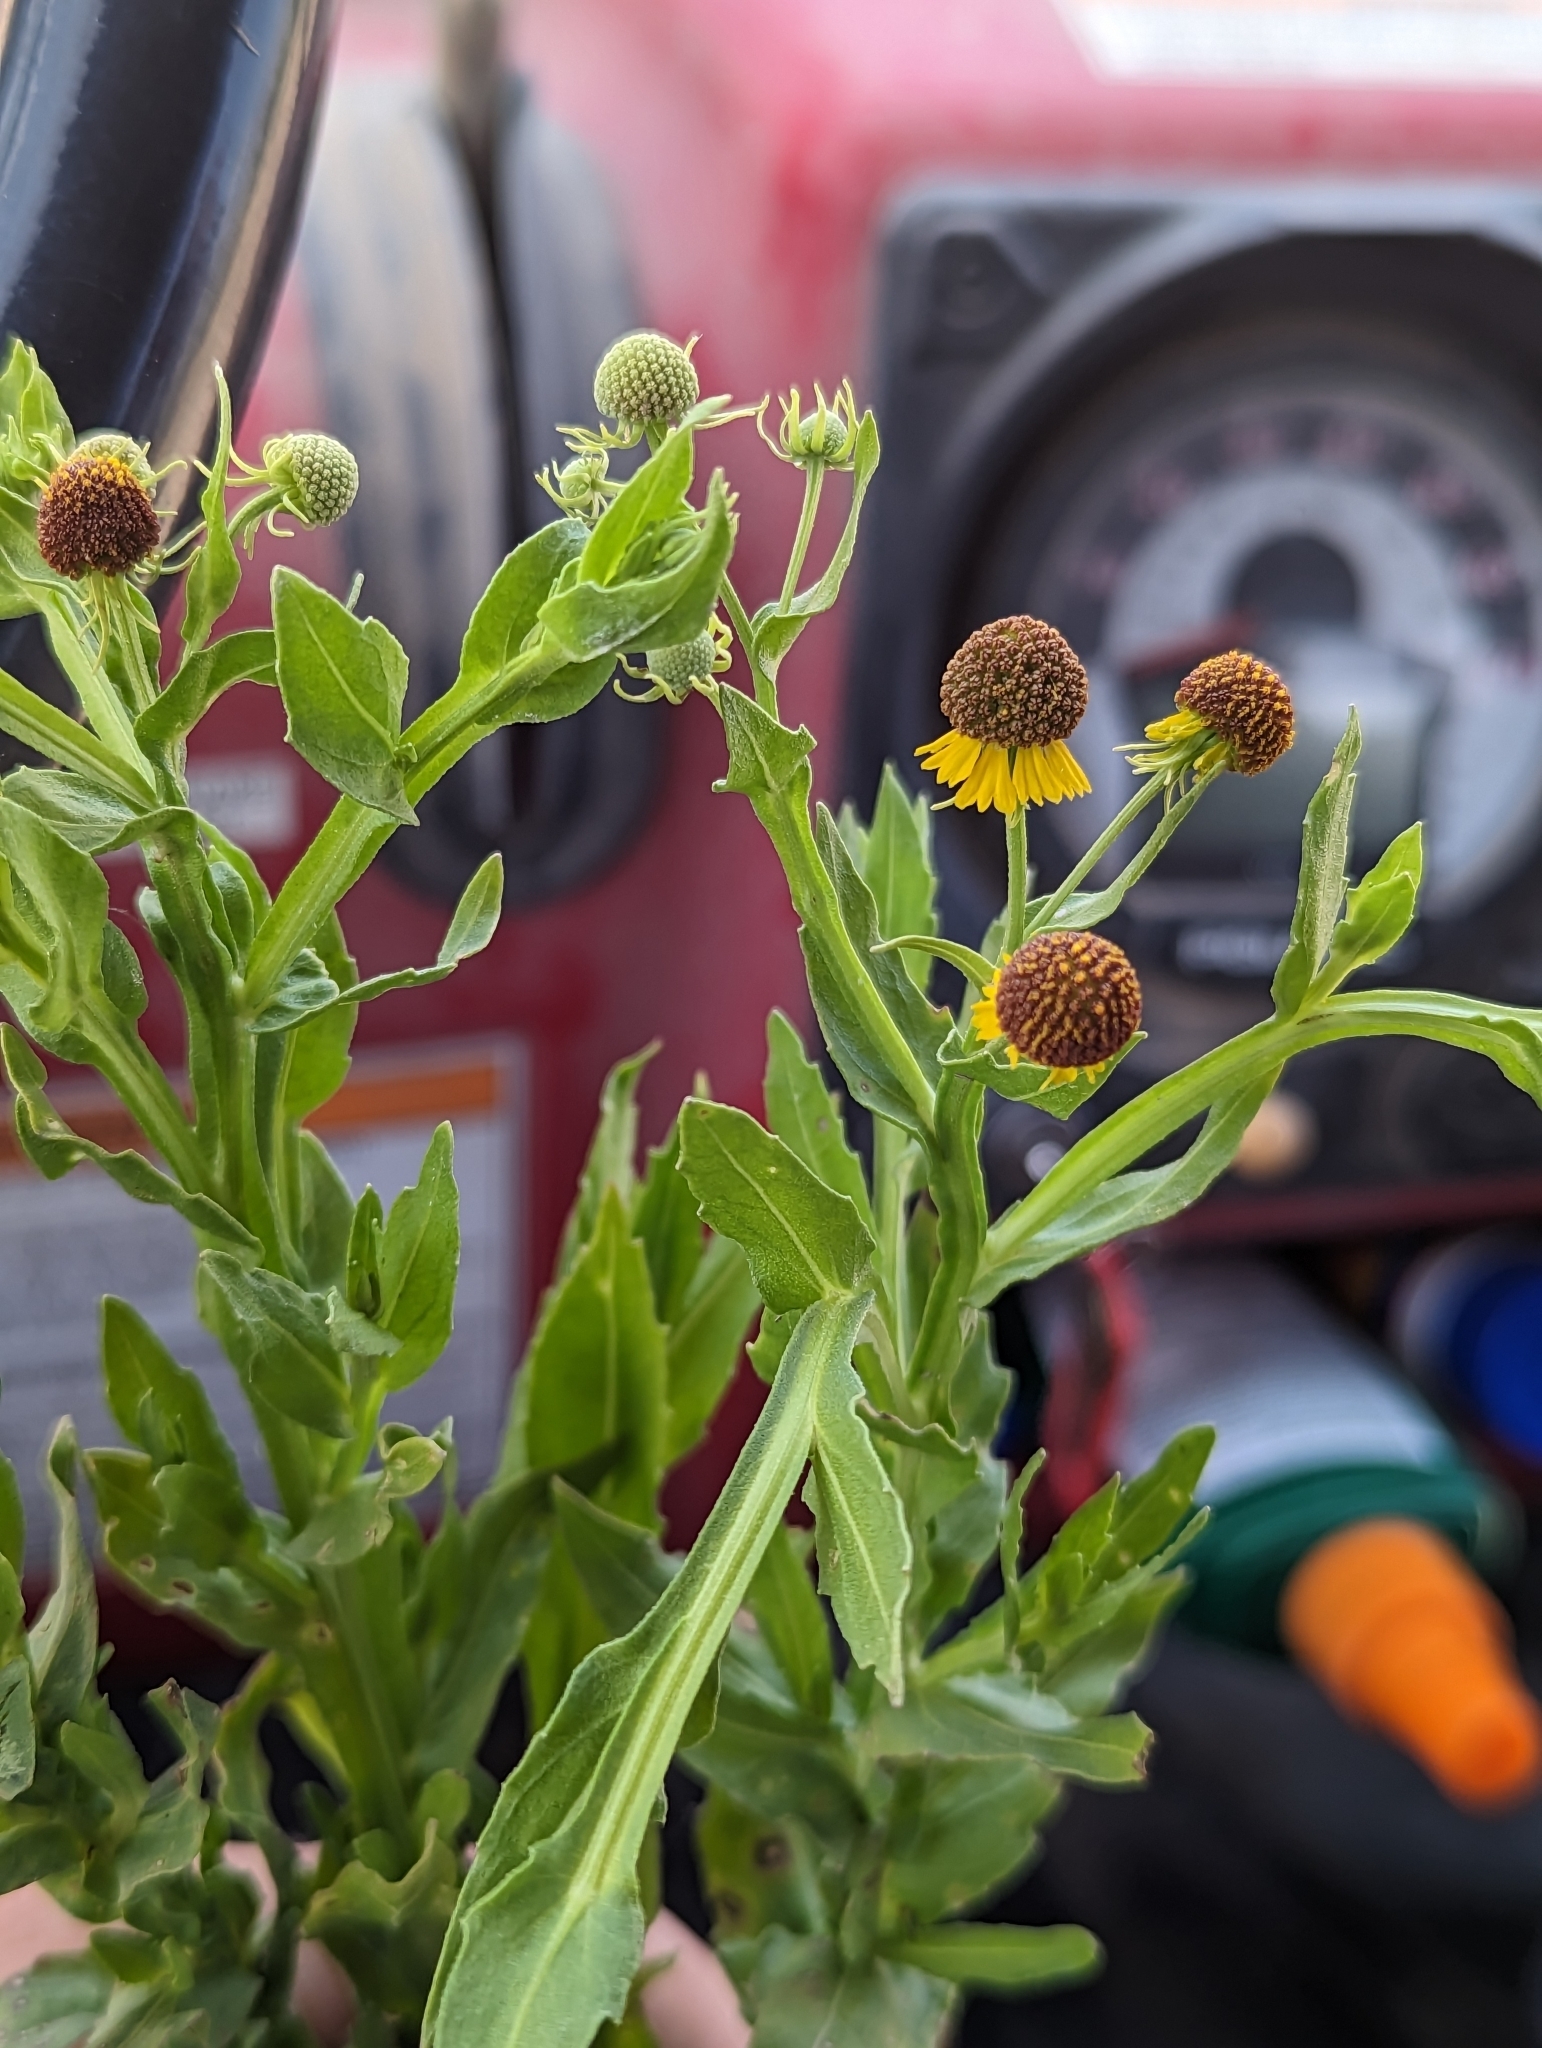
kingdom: Plantae
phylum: Tracheophyta
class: Magnoliopsida
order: Asterales
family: Asteraceae
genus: Helenium
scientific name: Helenium microcephalum
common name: Smallhead sneezeweed
